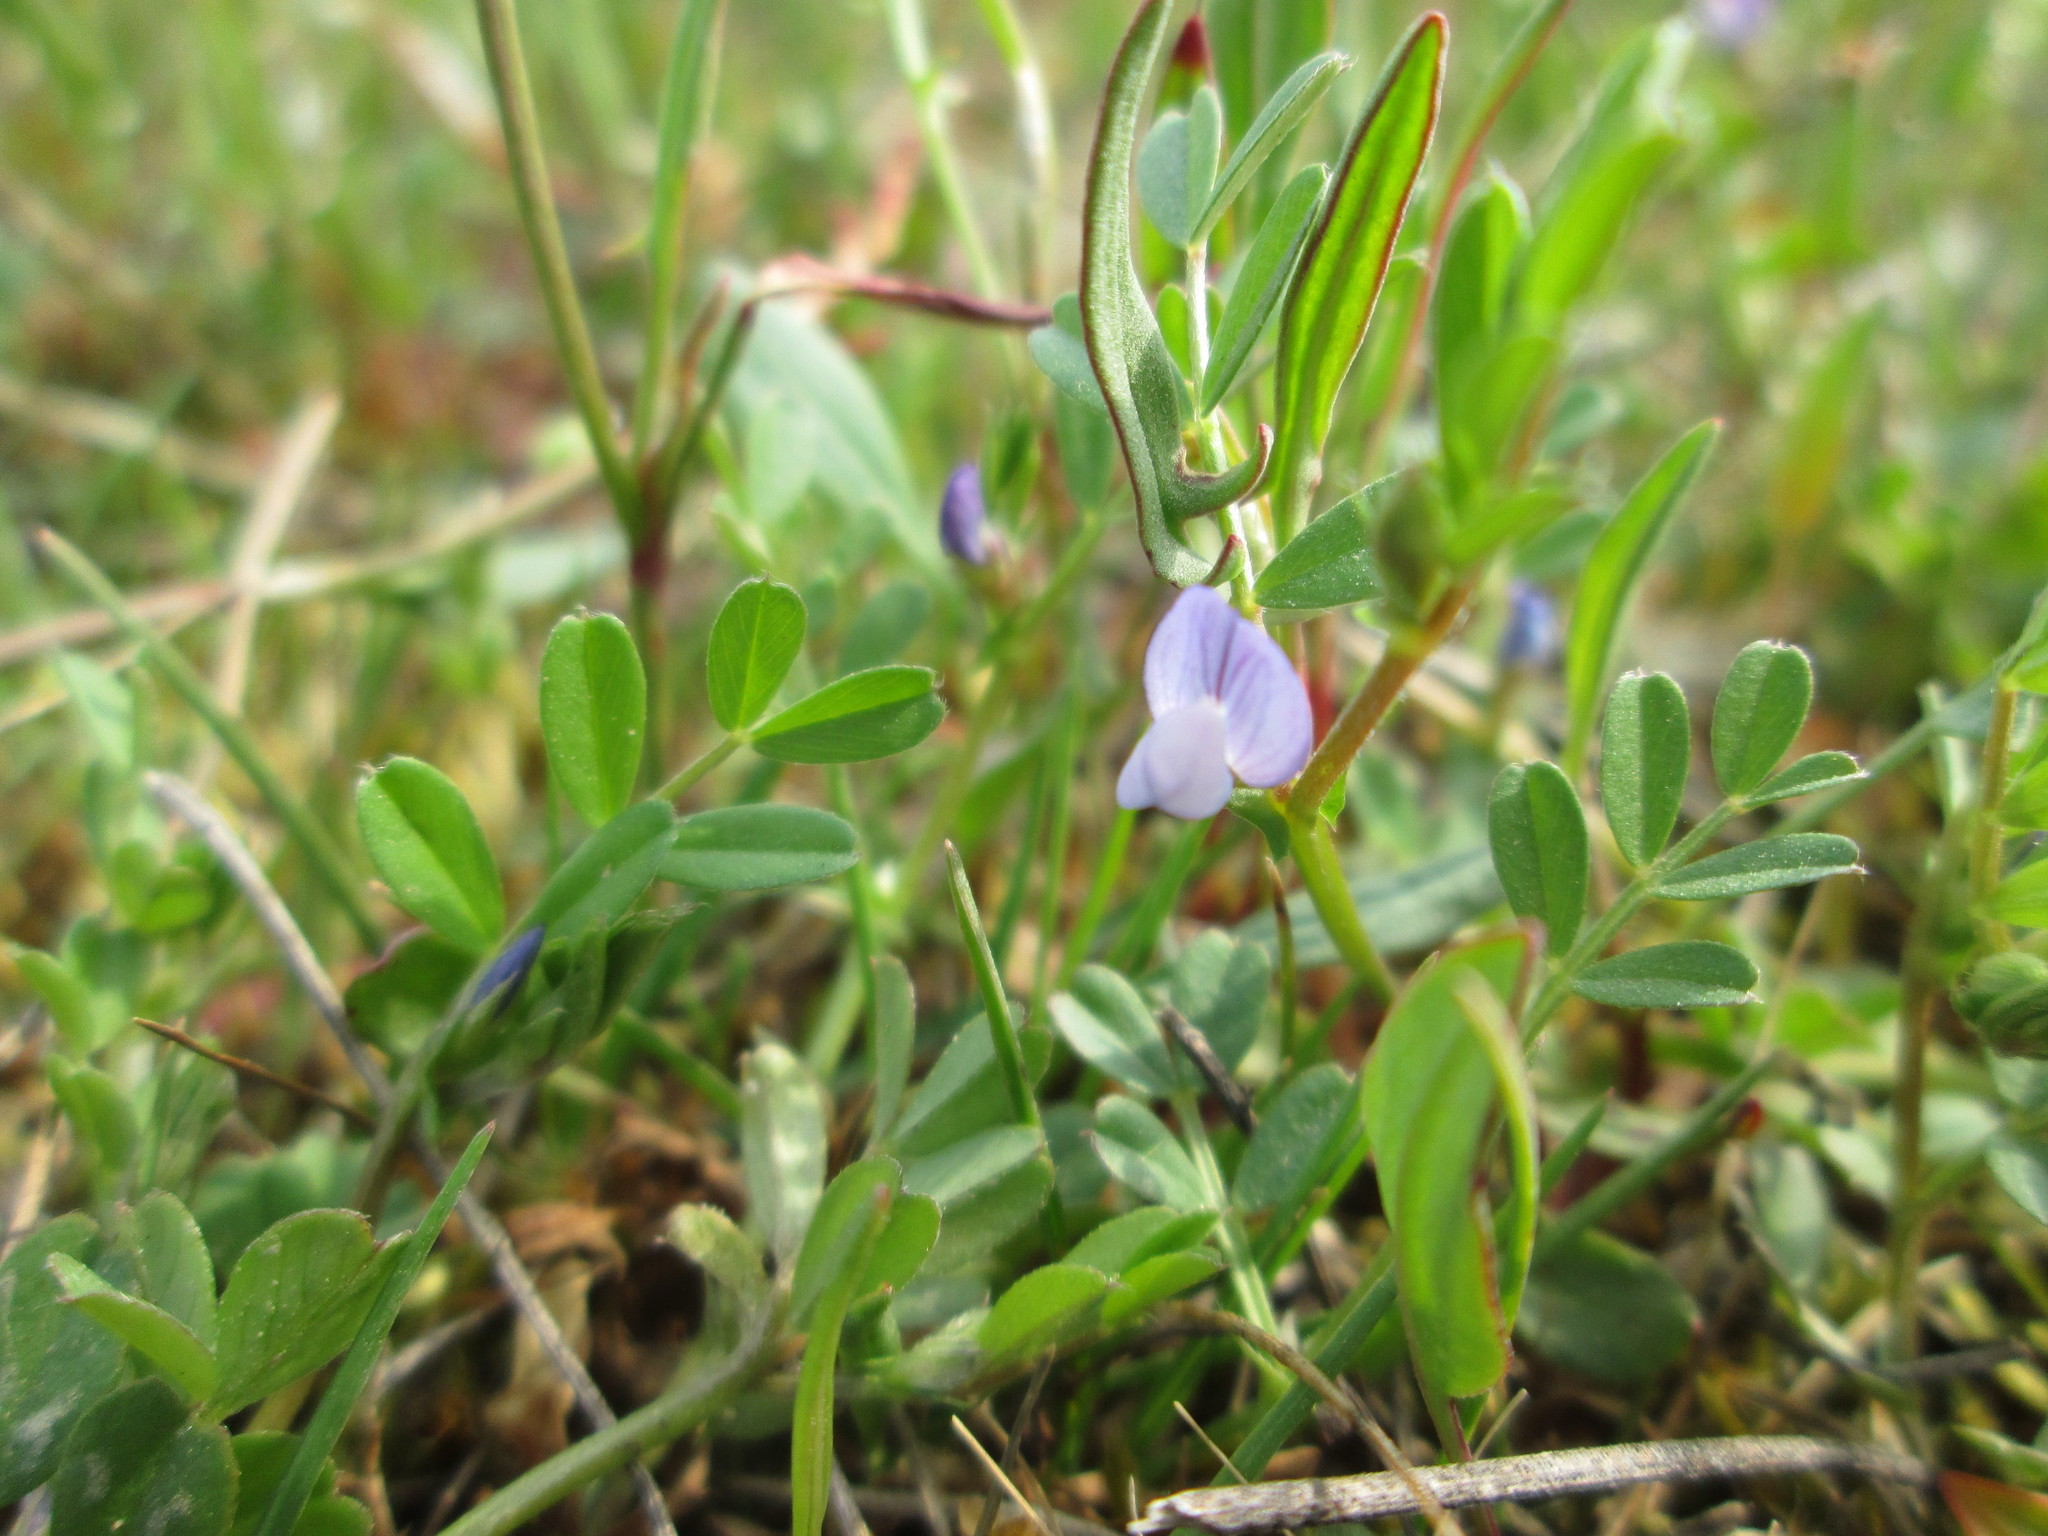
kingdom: Plantae
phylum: Tracheophyta
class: Magnoliopsida
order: Fabales
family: Fabaceae
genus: Vicia
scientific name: Vicia lathyroides
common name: Spring vetch
